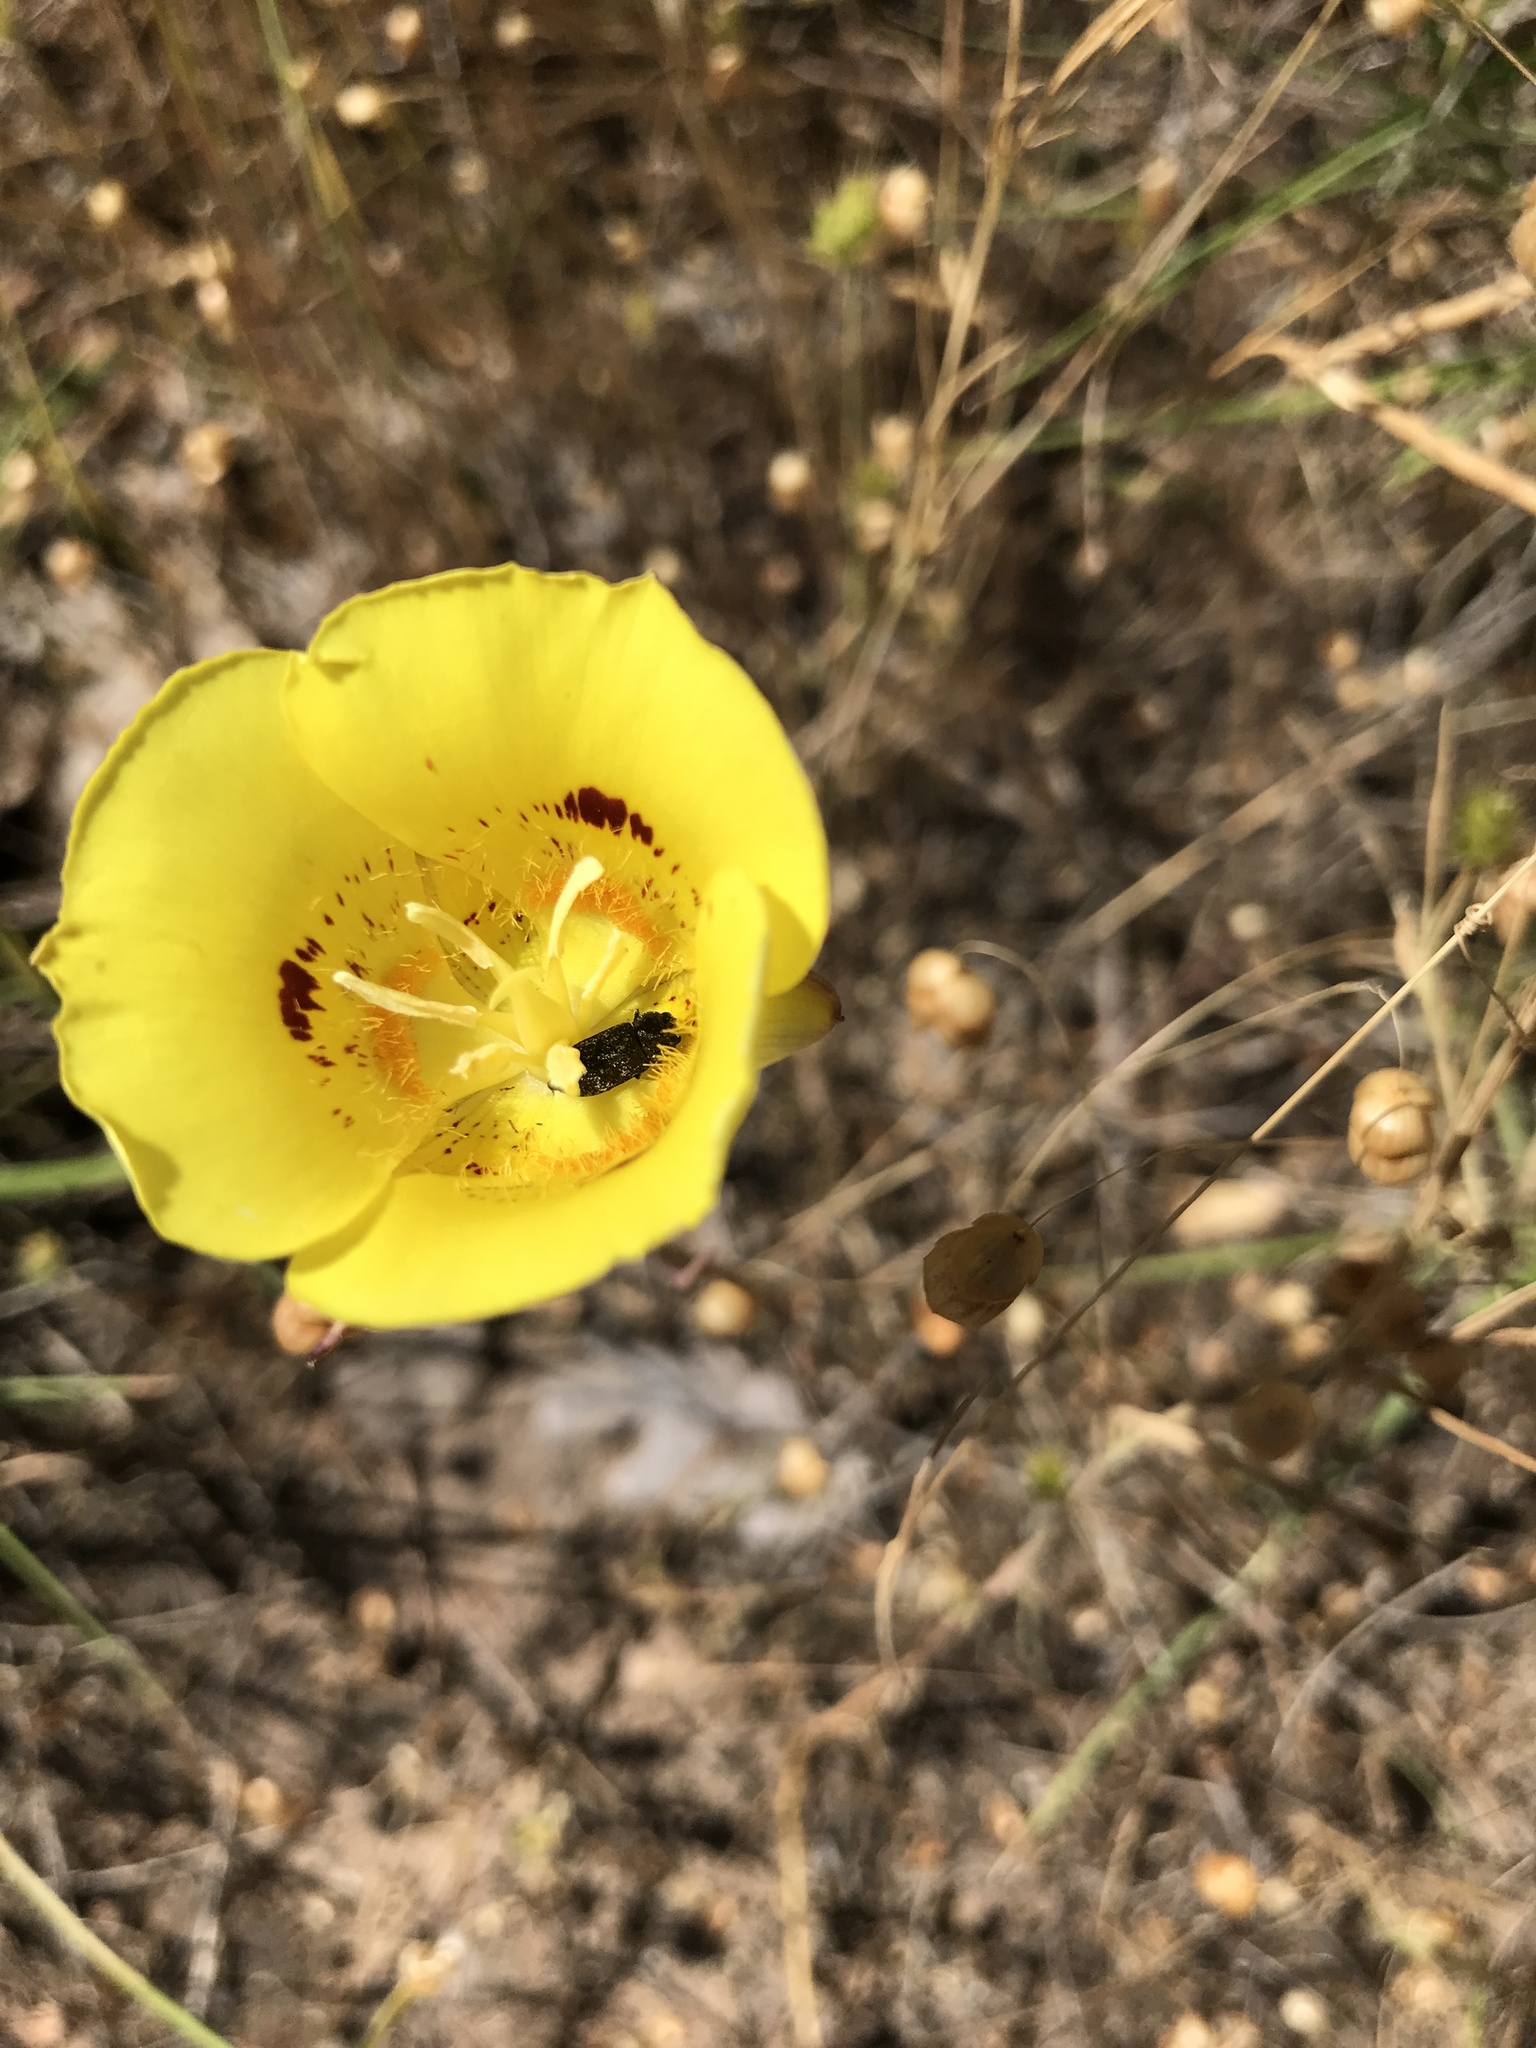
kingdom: Plantae
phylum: Tracheophyta
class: Liliopsida
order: Liliales
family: Liliaceae
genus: Calochortus
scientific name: Calochortus luteus
